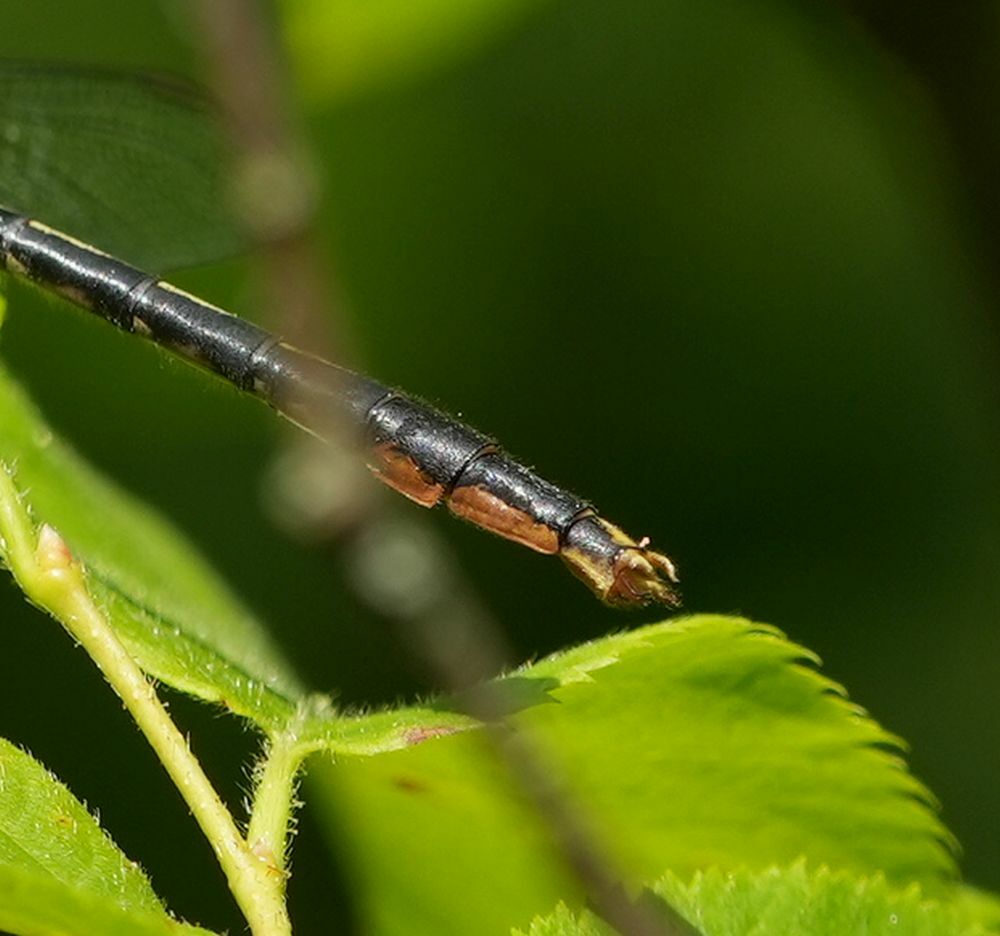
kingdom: Animalia
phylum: Arthropoda
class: Insecta
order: Odonata
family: Gomphidae
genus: Arigomphus
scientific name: Arigomphus furcifer
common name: Lilypad clubtail
